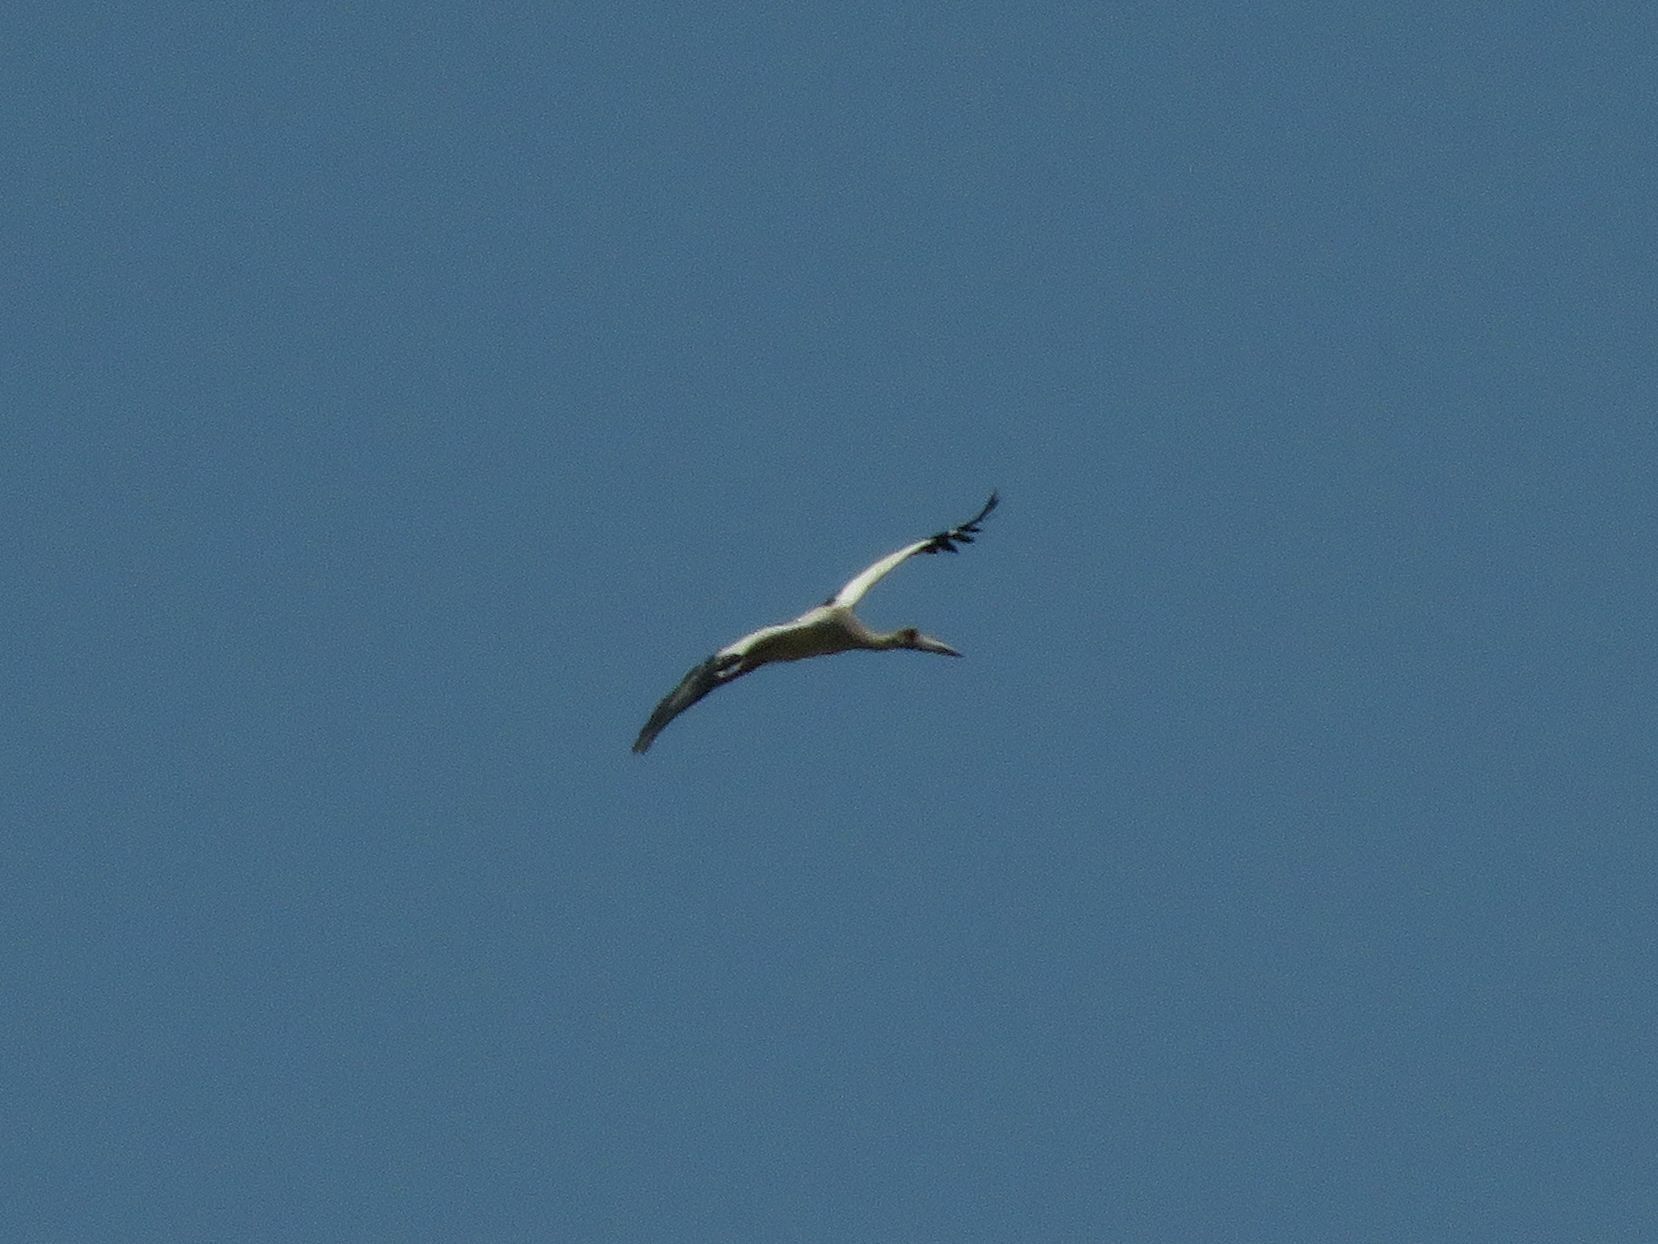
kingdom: Animalia
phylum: Chordata
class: Aves
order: Ciconiiformes
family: Ciconiidae
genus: Ciconia
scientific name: Ciconia maguari
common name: Maguari stork
